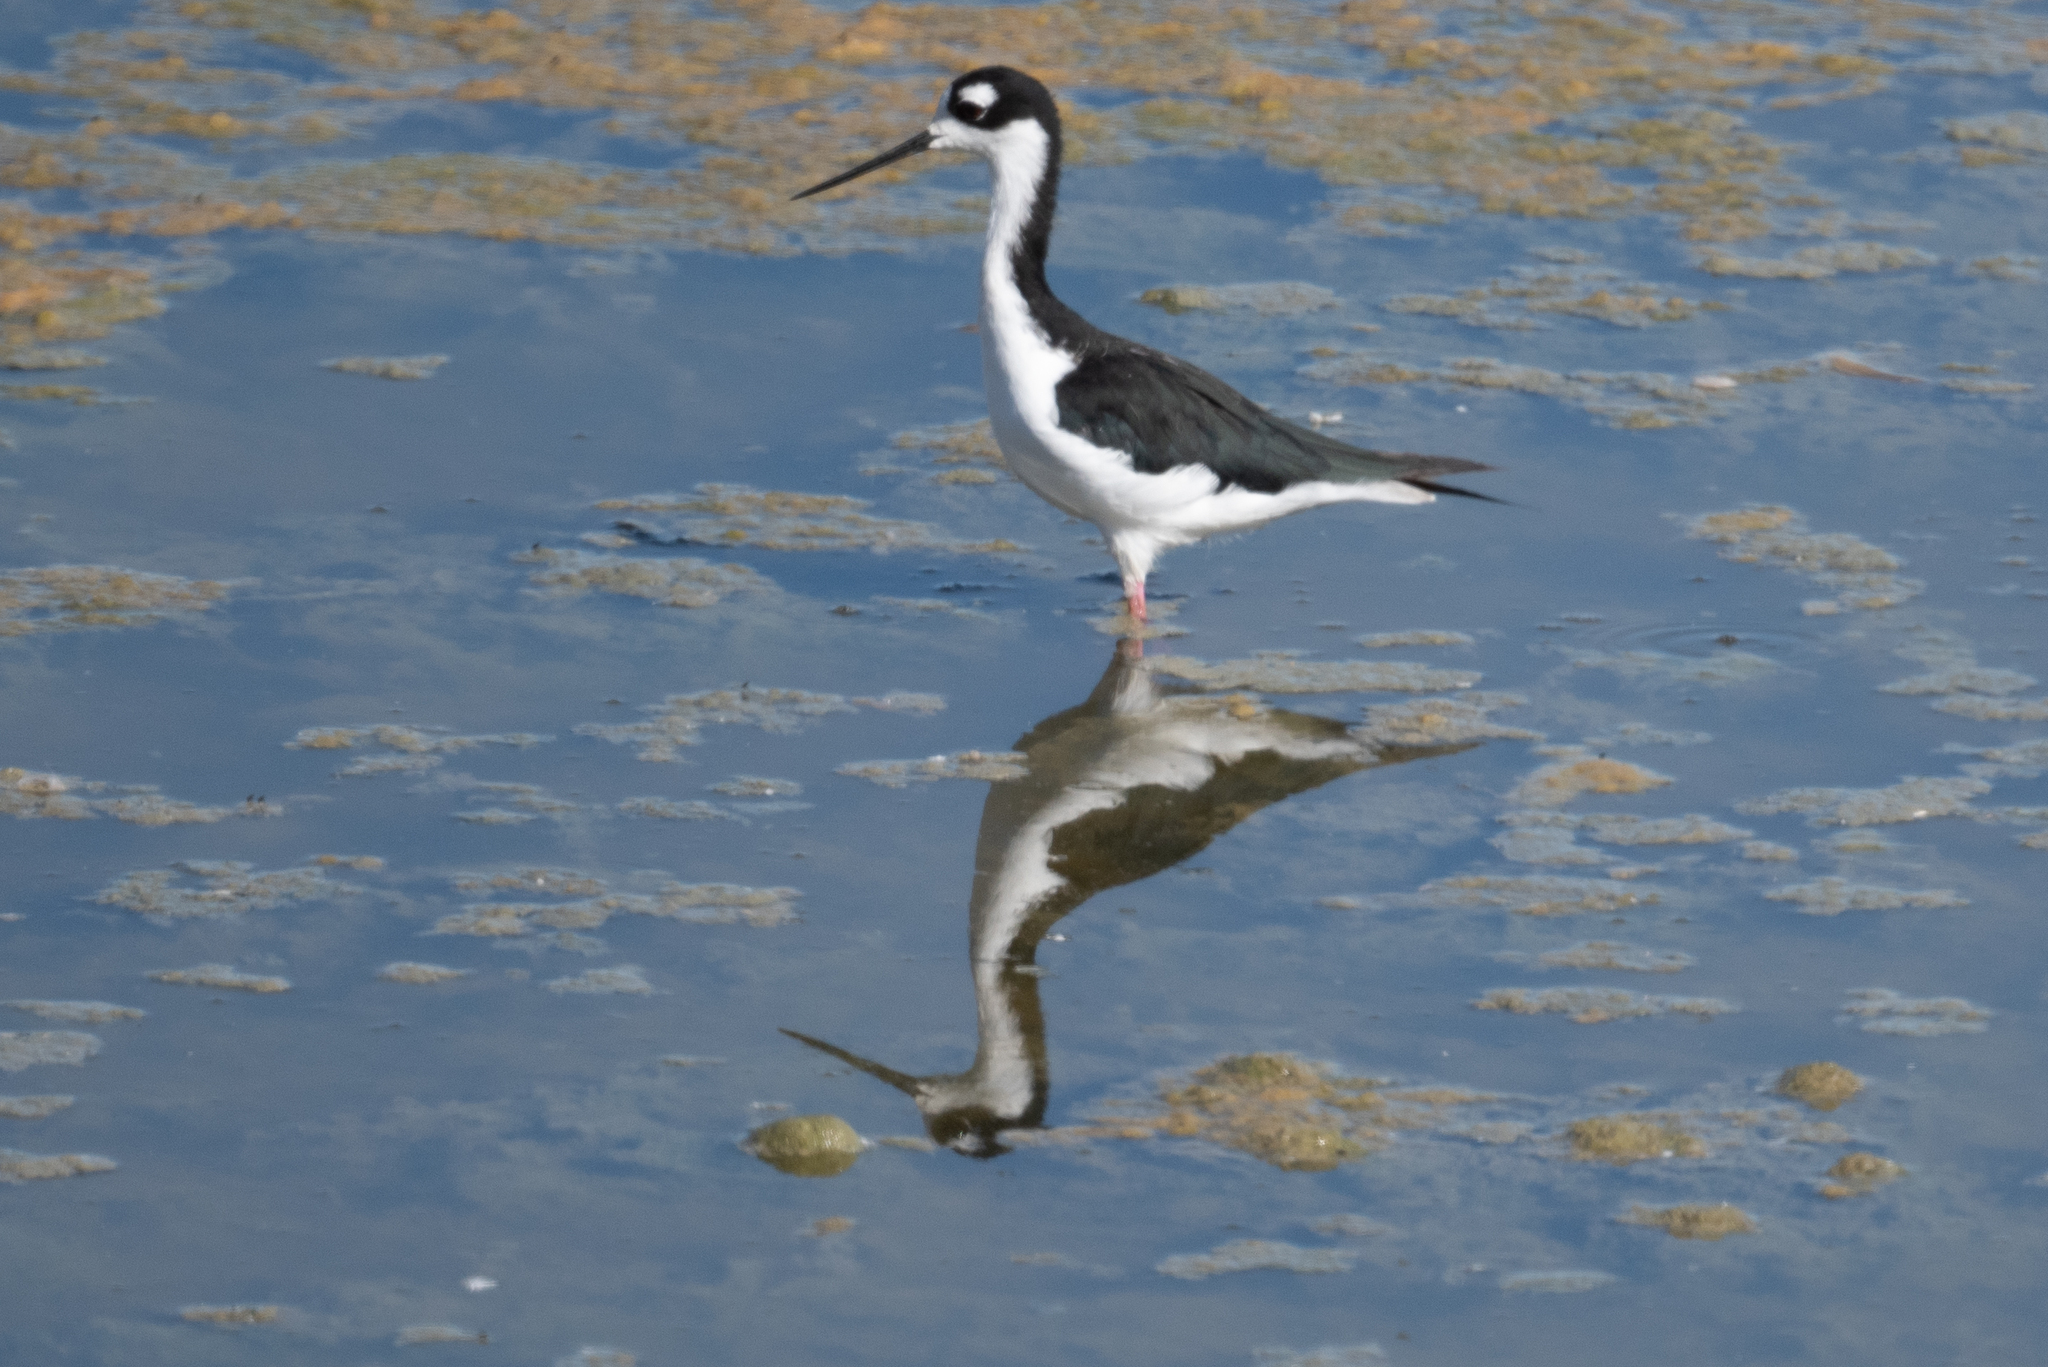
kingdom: Animalia
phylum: Chordata
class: Aves
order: Charadriiformes
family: Recurvirostridae
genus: Himantopus
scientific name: Himantopus mexicanus
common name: Black-necked stilt
